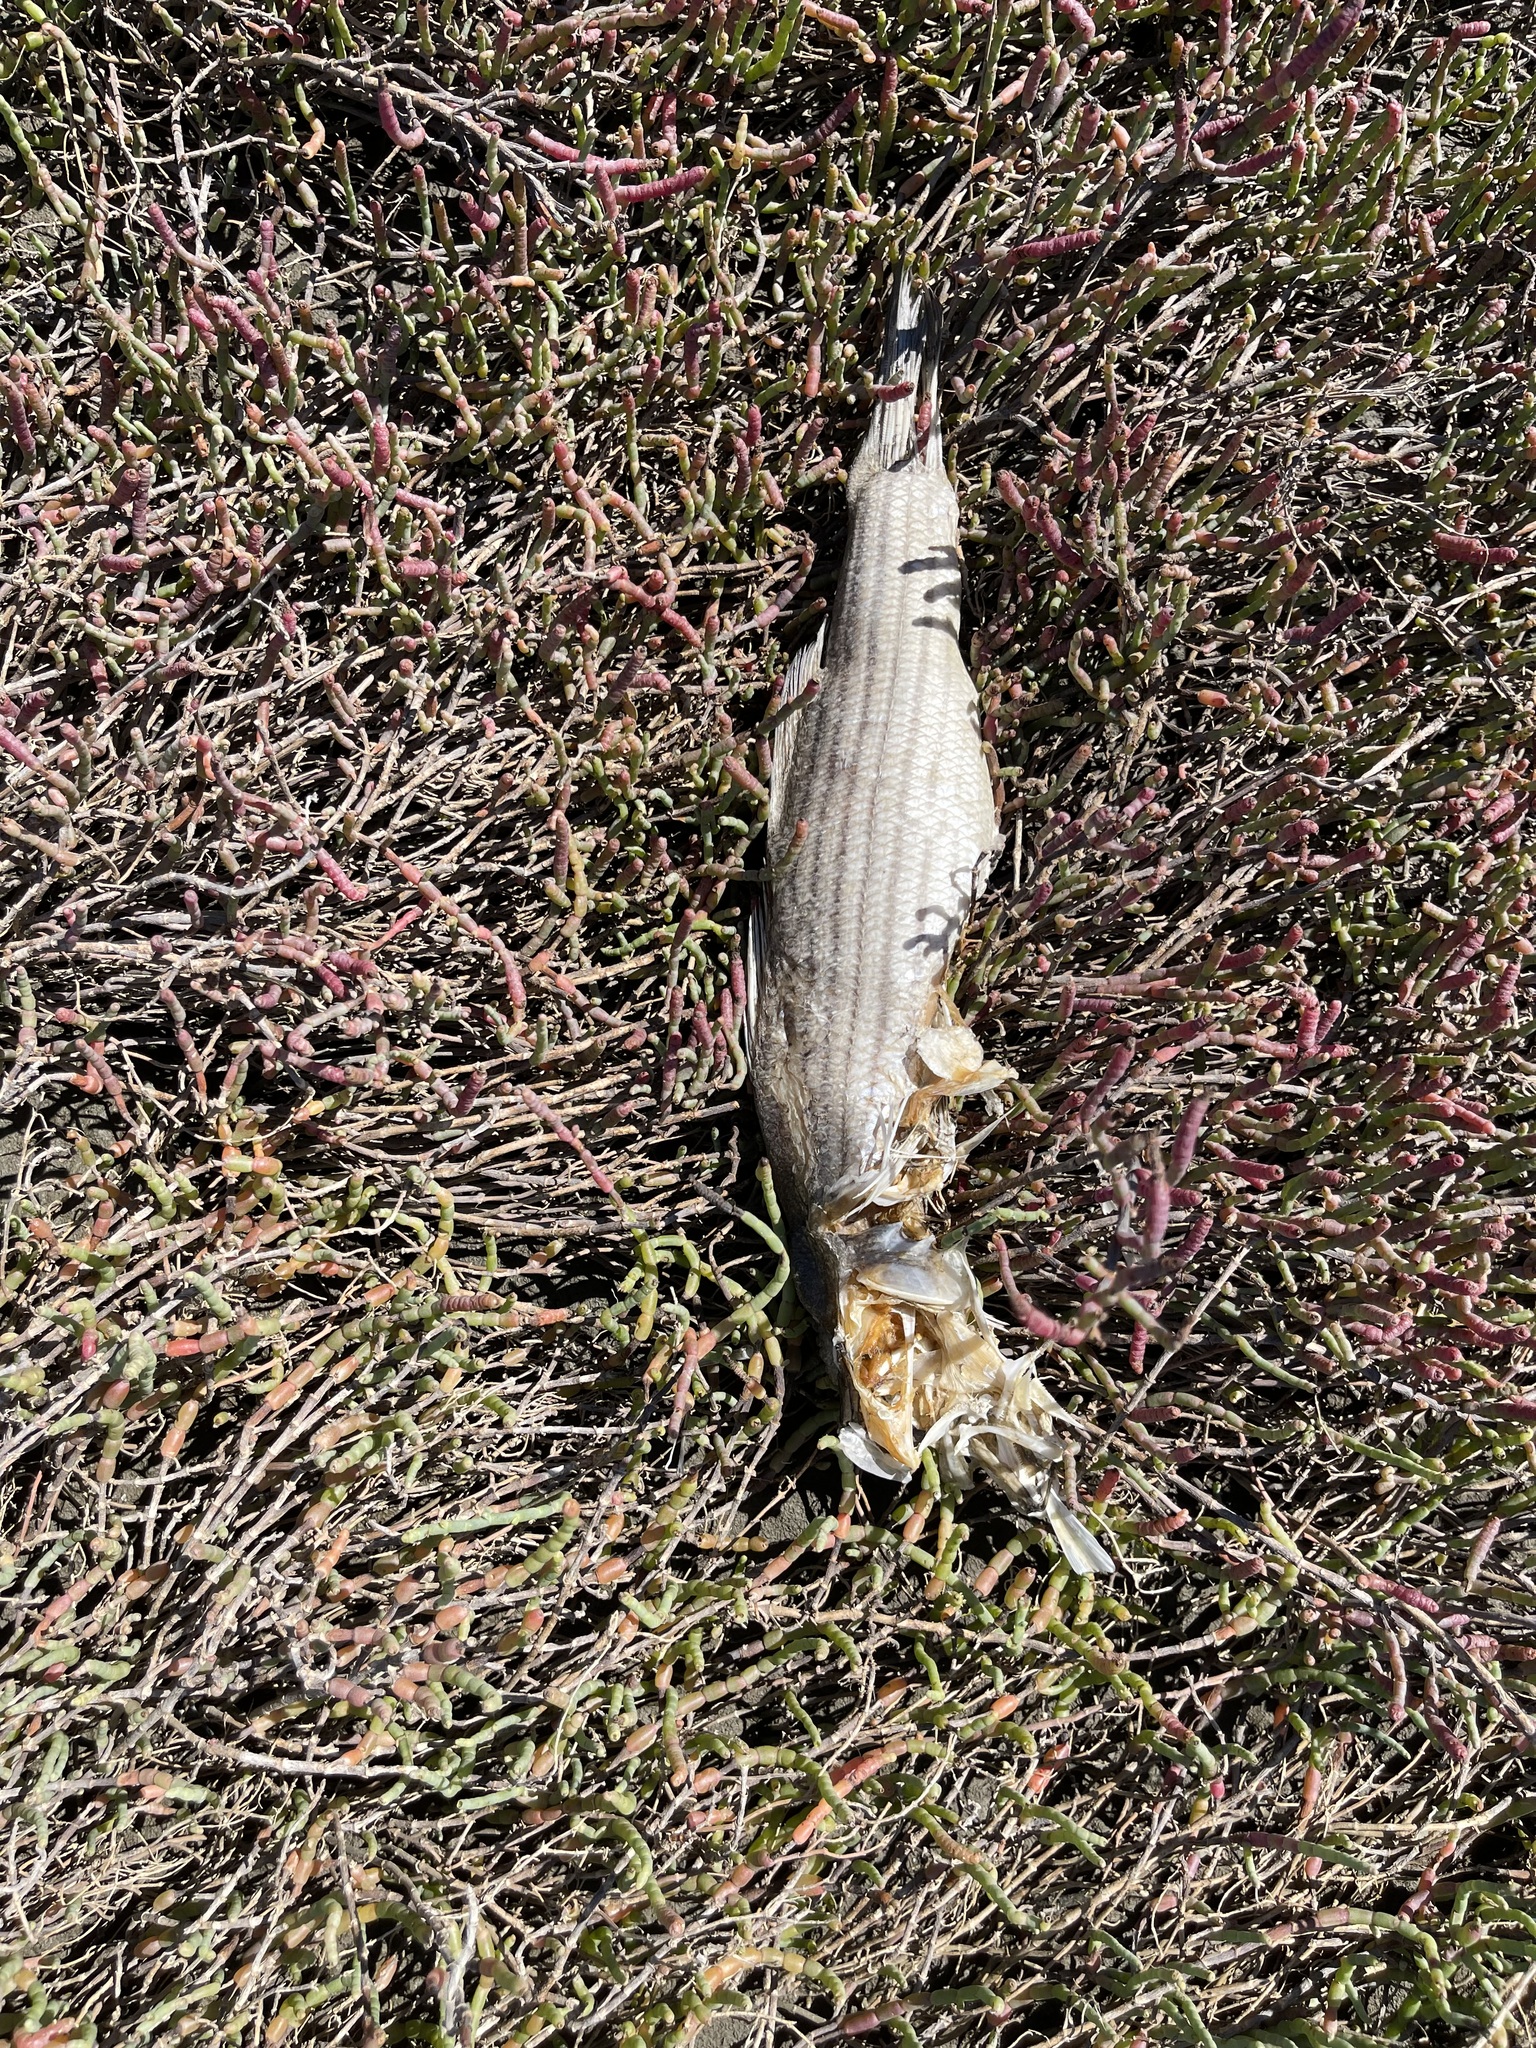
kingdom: Animalia
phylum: Chordata
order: Perciformes
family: Moronidae
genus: Morone
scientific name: Morone saxatilis
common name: Striped bass
